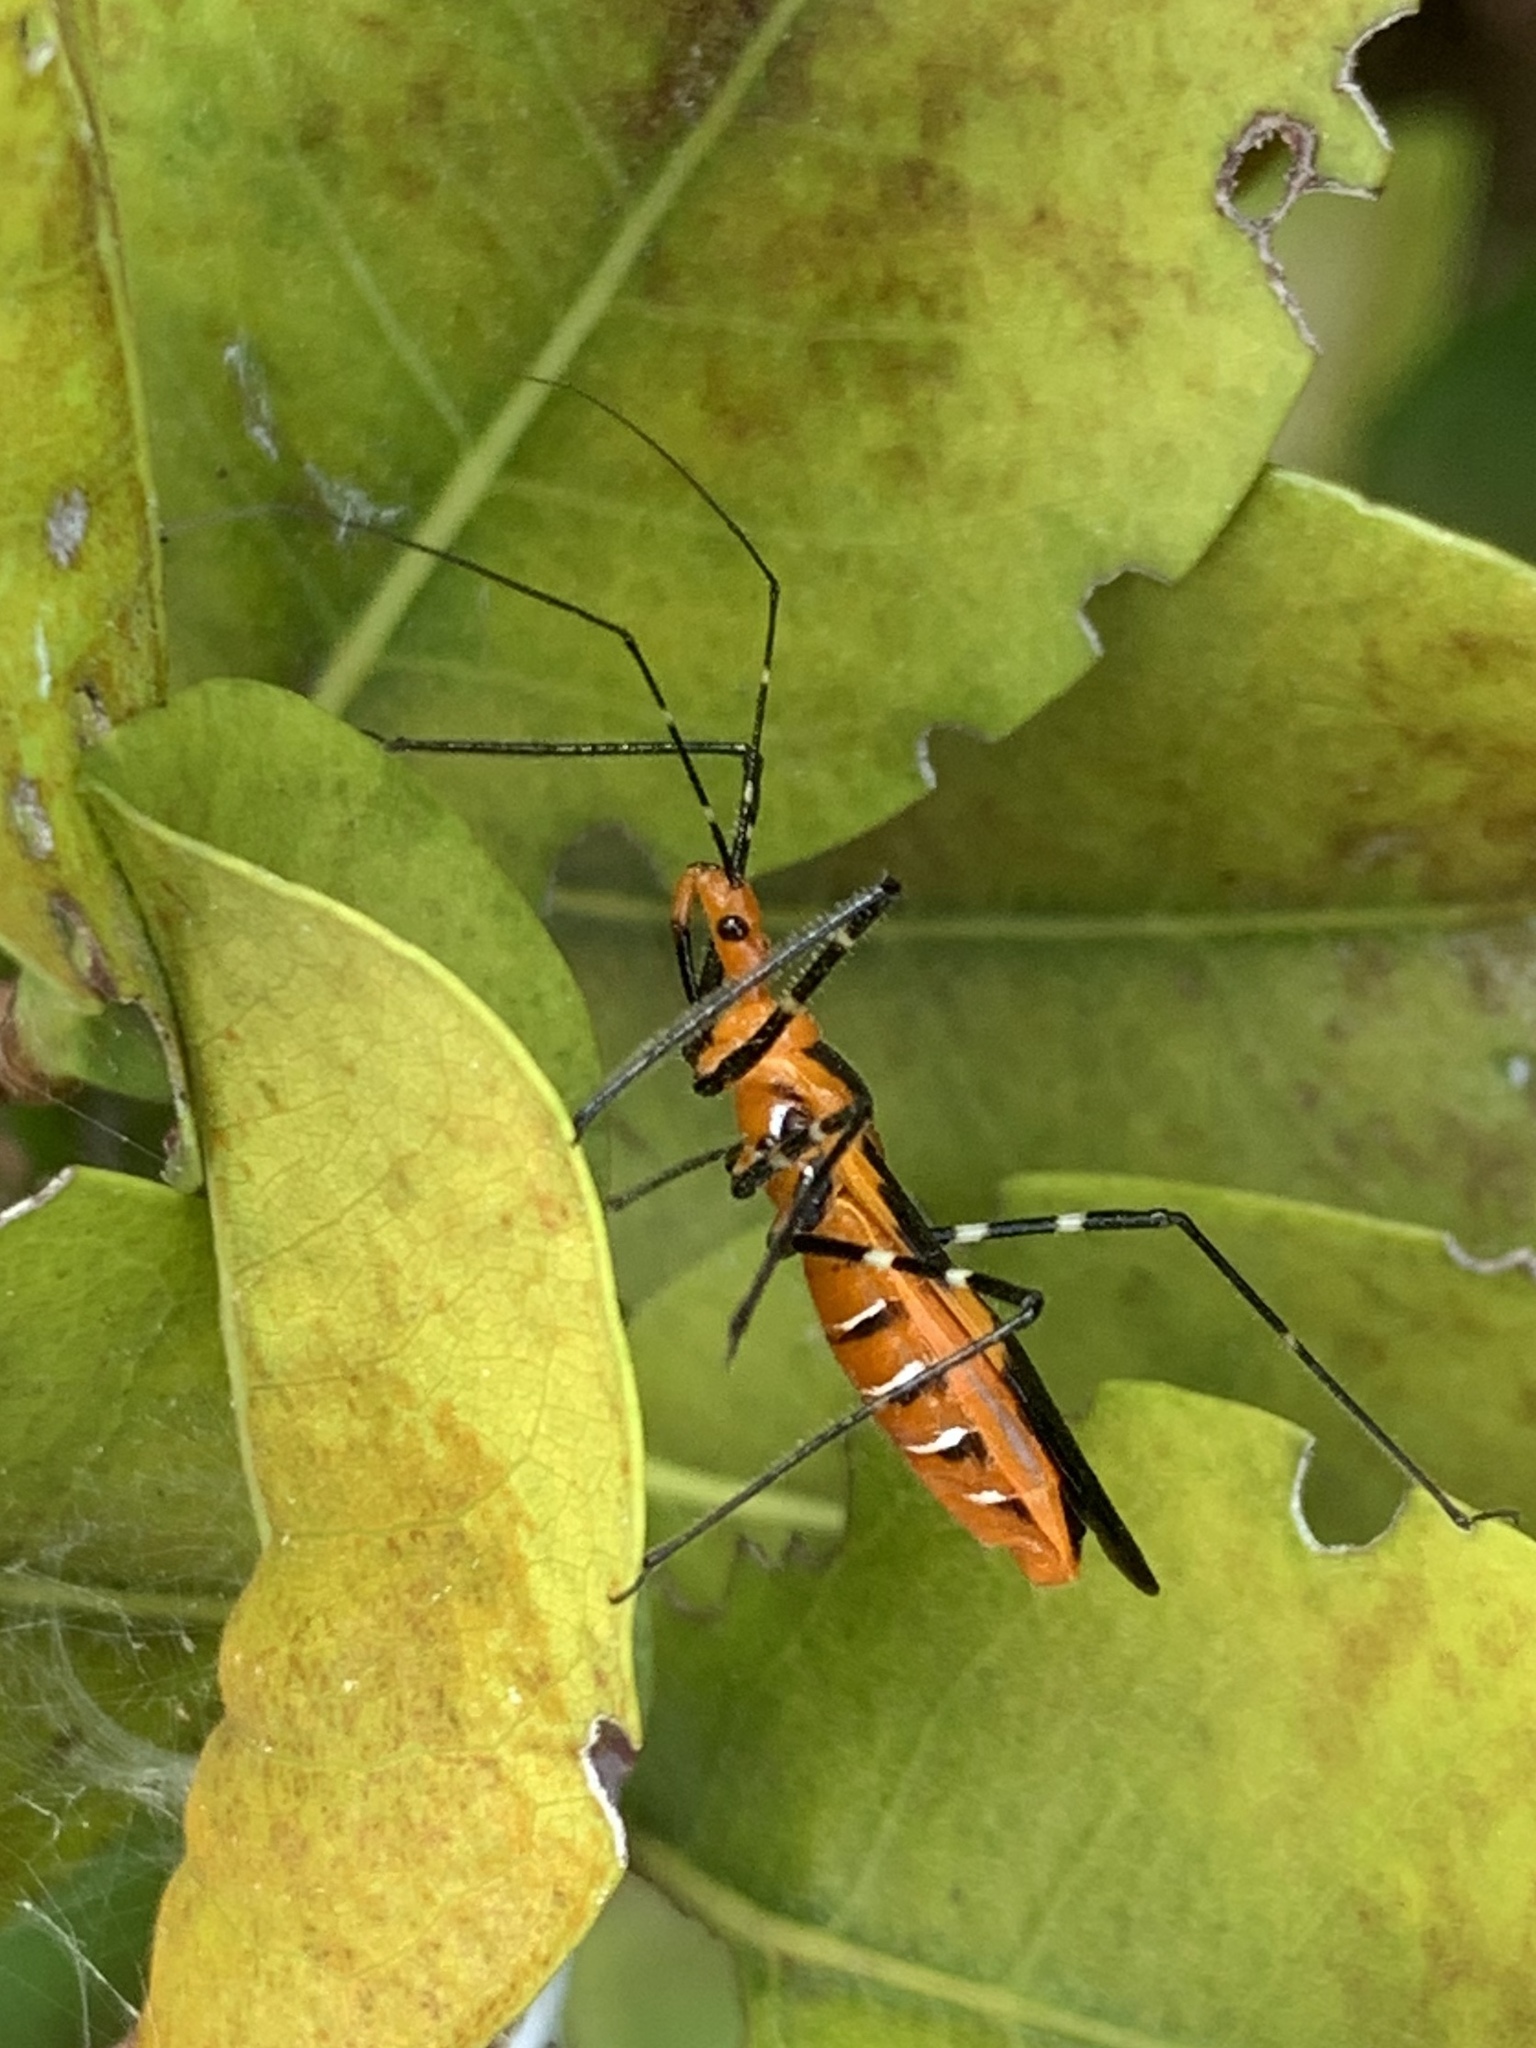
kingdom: Animalia
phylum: Arthropoda
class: Insecta
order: Hemiptera
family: Reduviidae
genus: Zelus
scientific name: Zelus longipes
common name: Milkweed assassin bug
